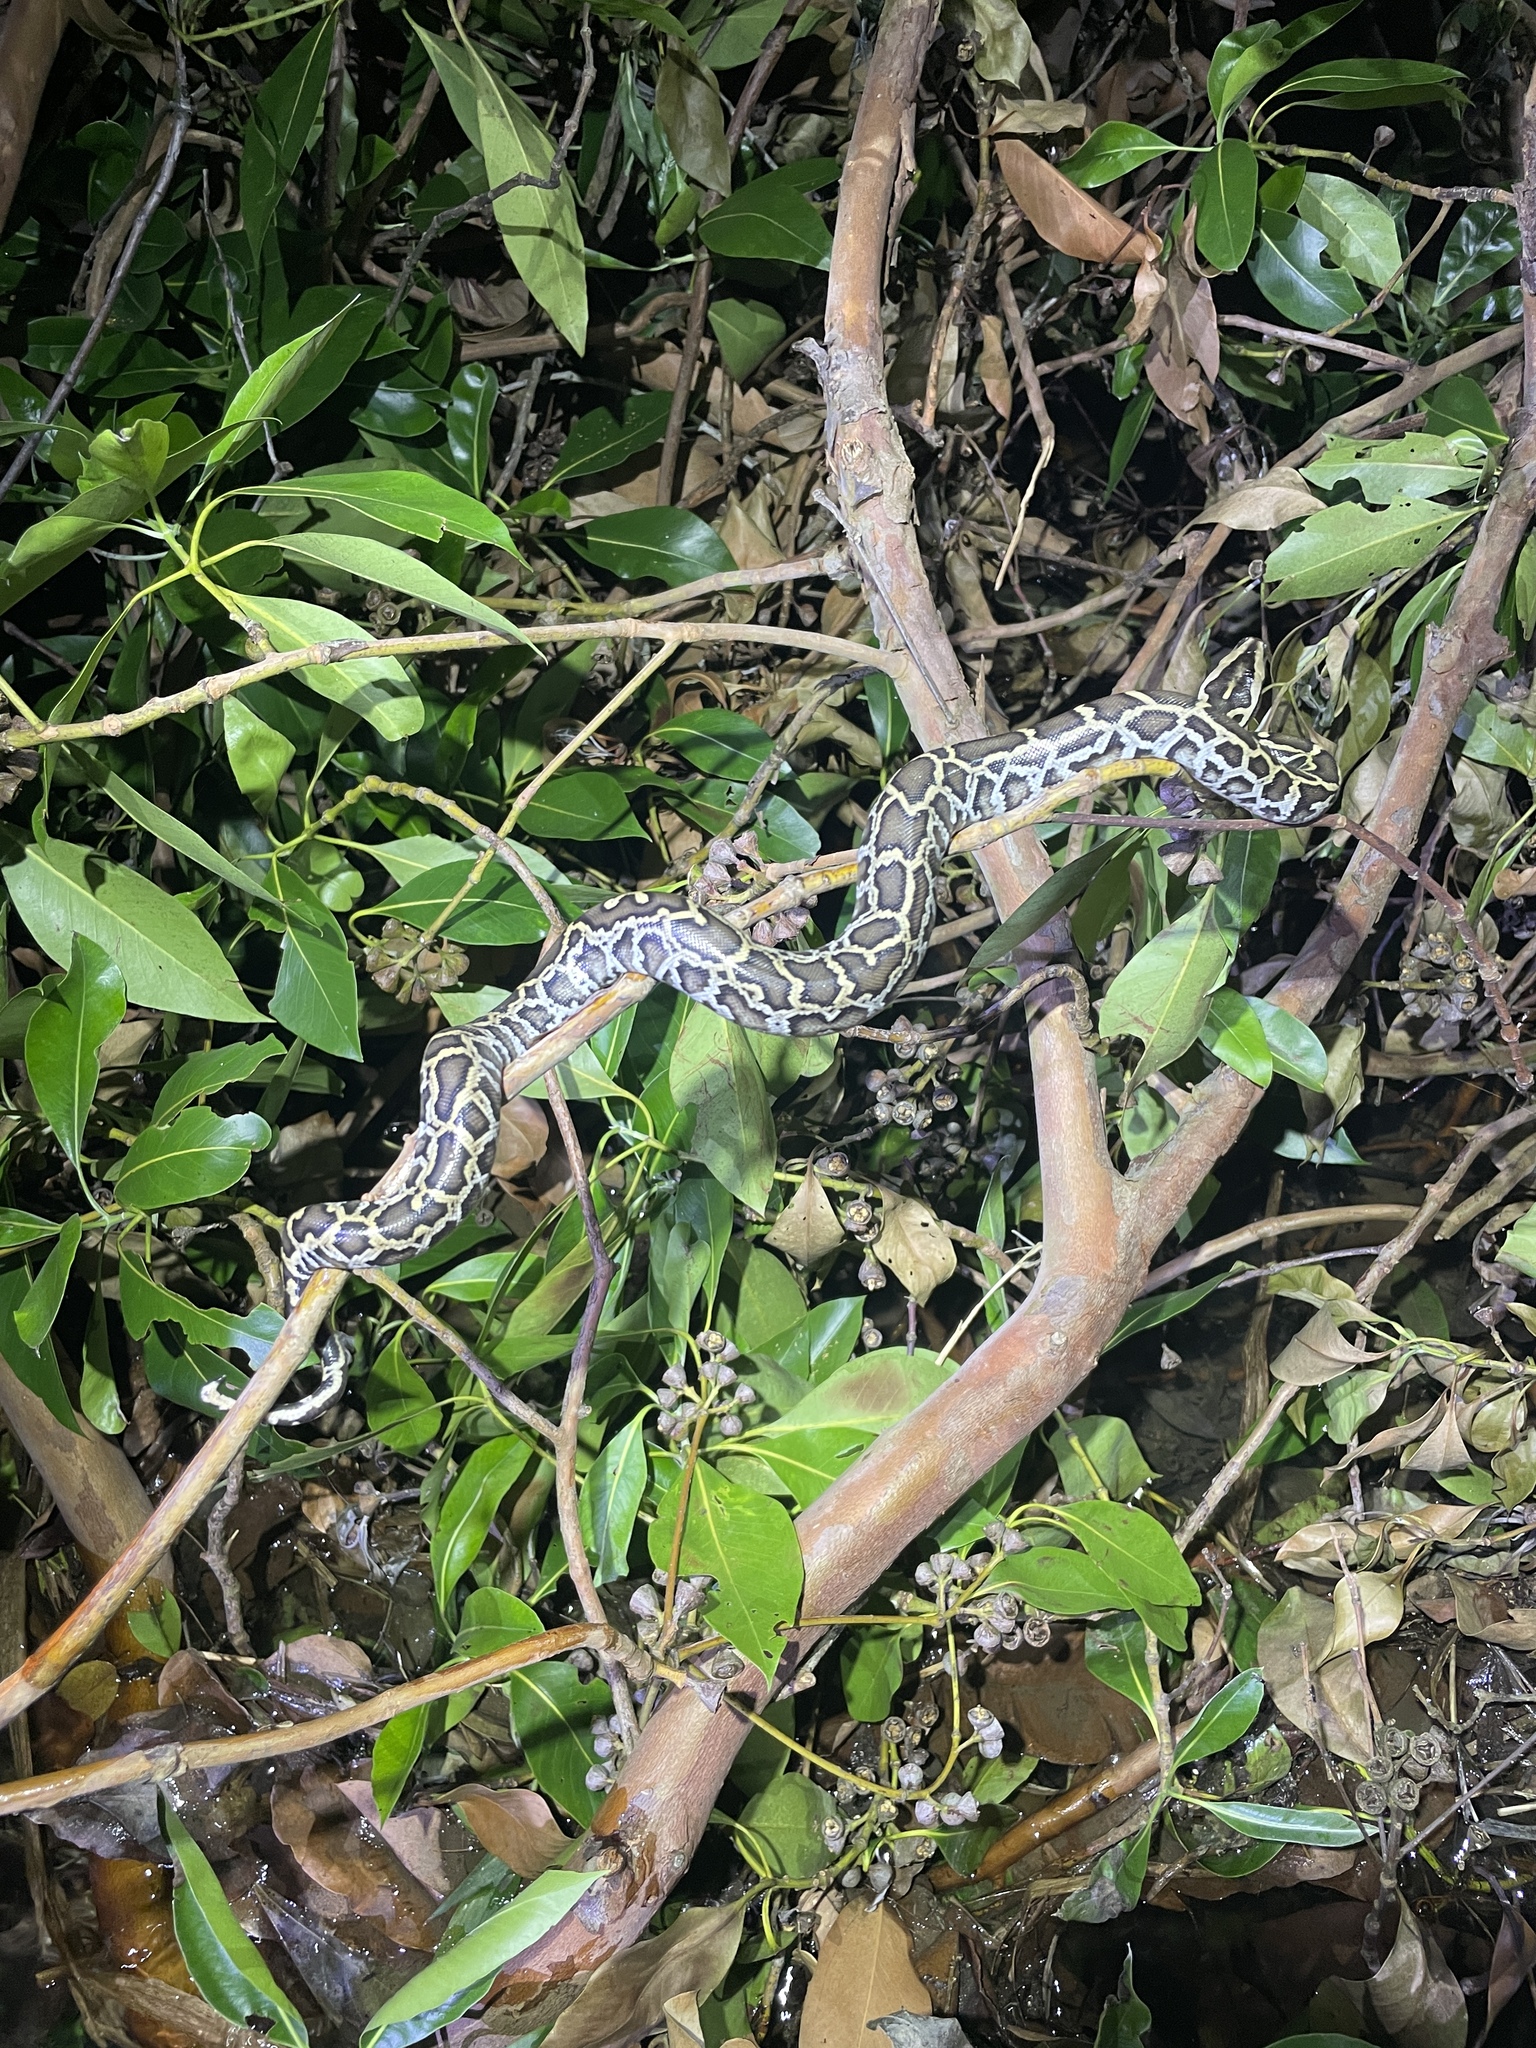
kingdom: Animalia
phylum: Chordata
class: Squamata
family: Pythonidae
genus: Python
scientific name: Python bivittatus
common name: Burmese python
